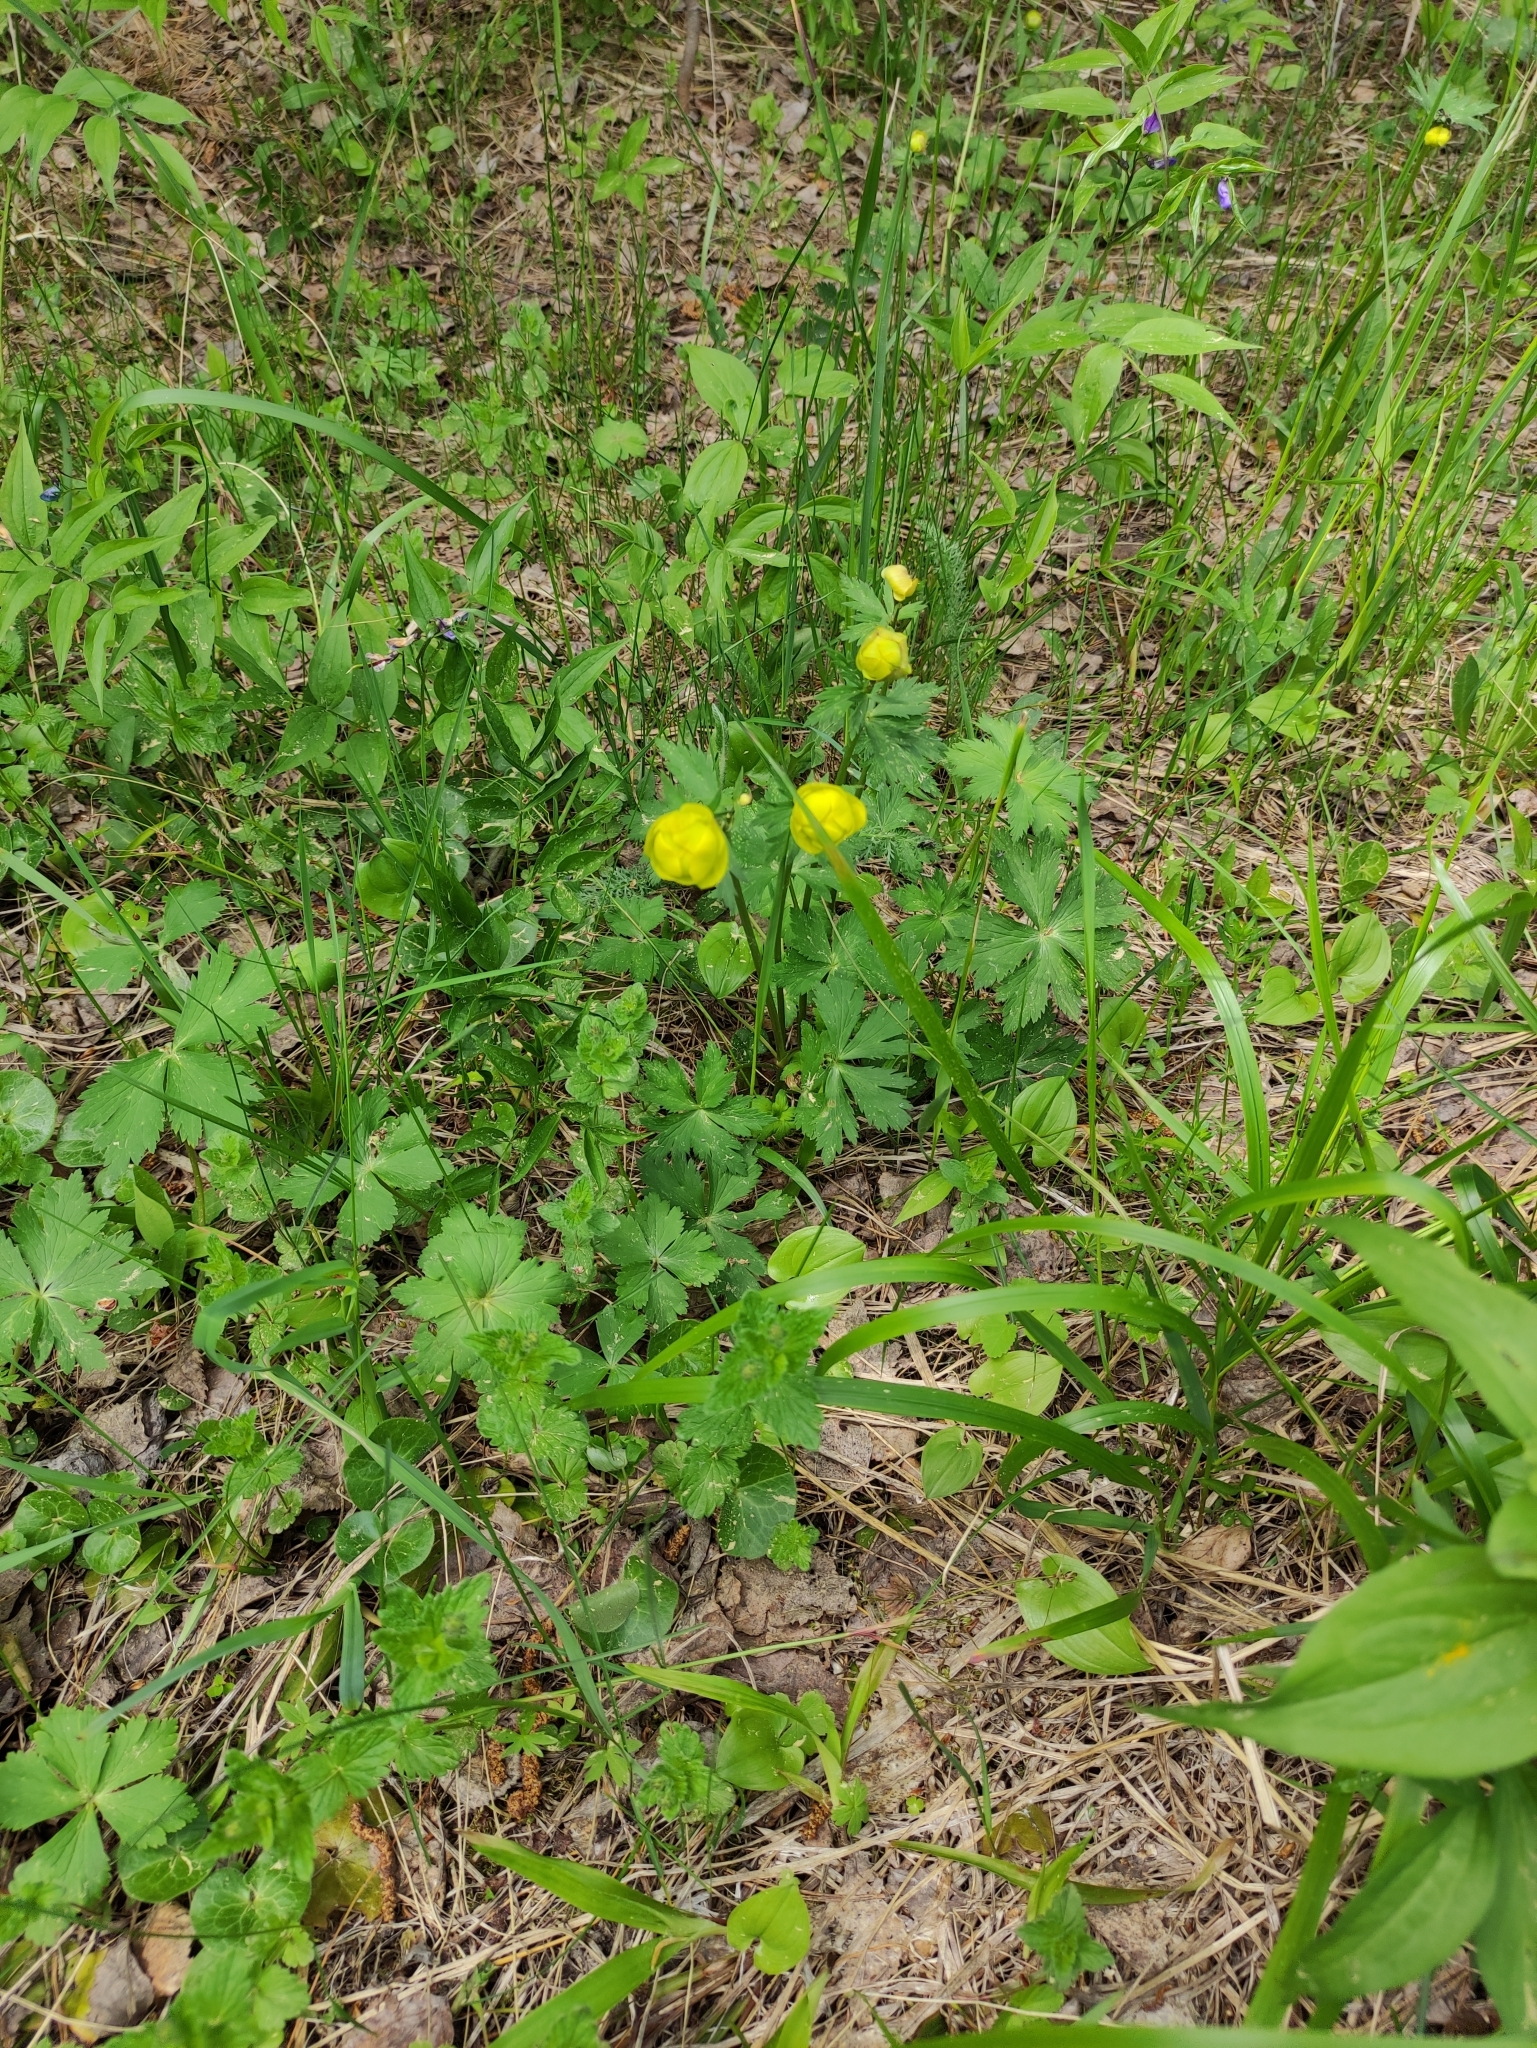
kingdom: Plantae
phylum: Tracheophyta
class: Magnoliopsida
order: Ranunculales
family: Ranunculaceae
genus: Trollius
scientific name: Trollius europaeus
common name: European globeflower
